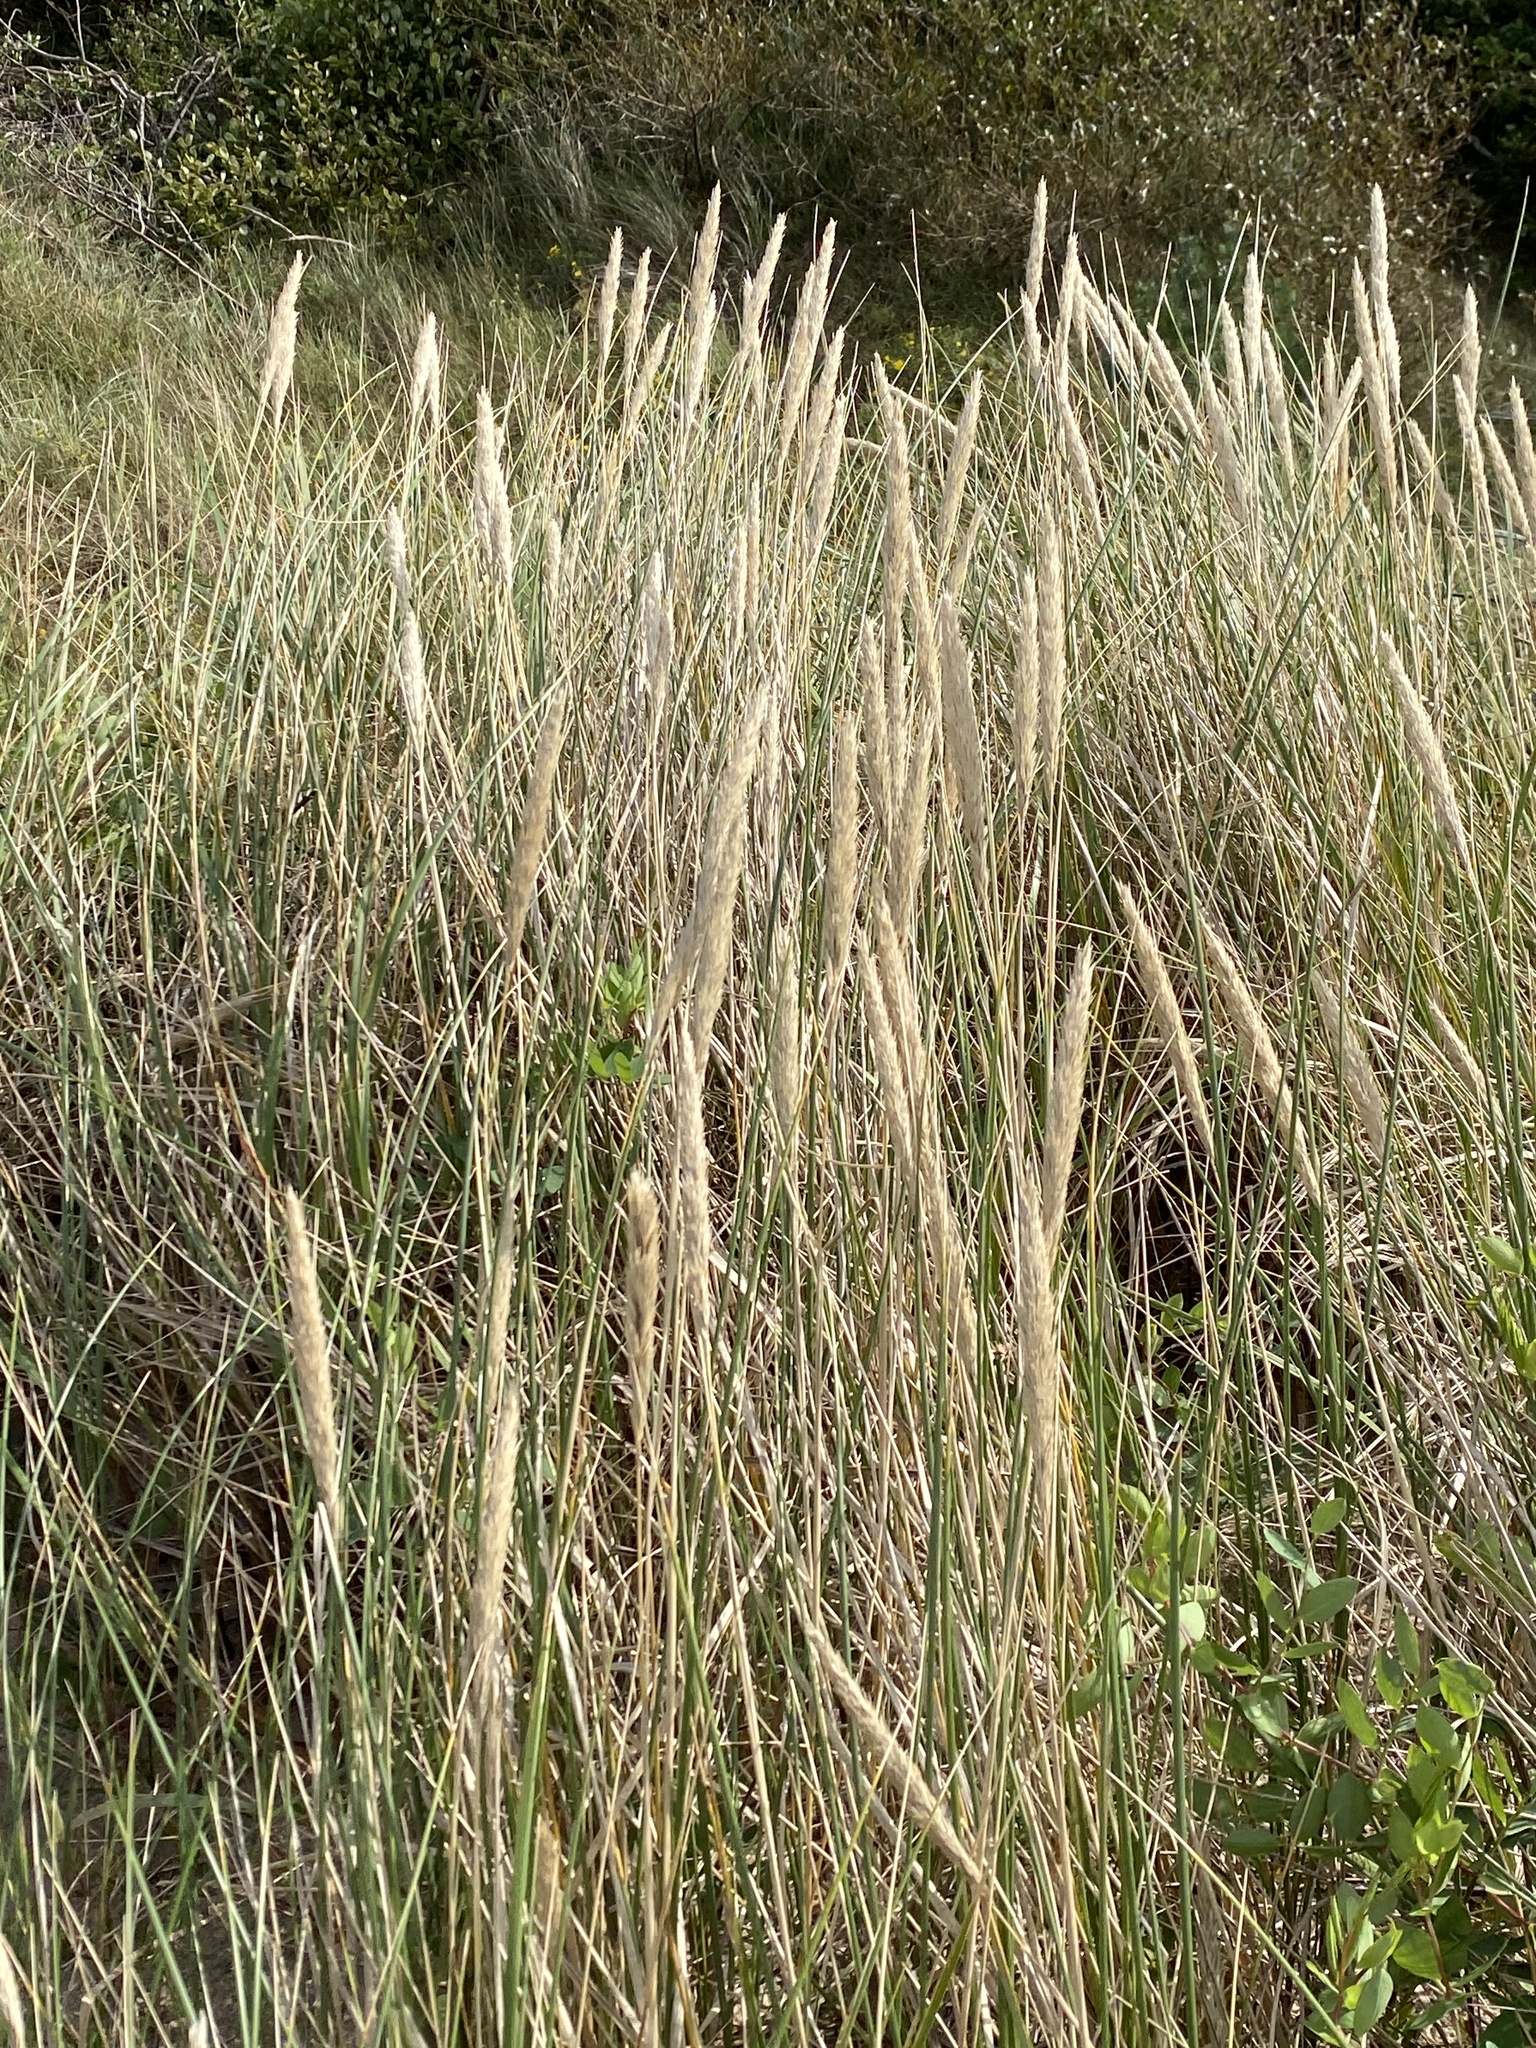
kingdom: Plantae
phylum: Tracheophyta
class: Liliopsida
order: Poales
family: Poaceae
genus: Calamagrostis
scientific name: Calamagrostis arenaria
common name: European beachgrass
